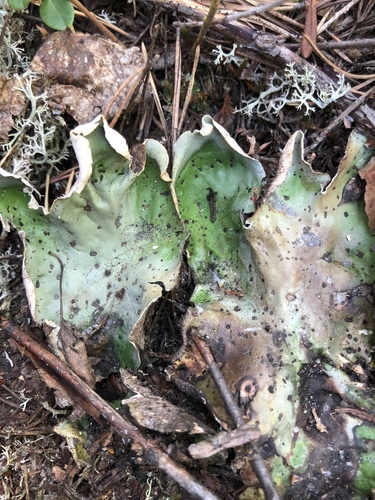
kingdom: Fungi
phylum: Ascomycota
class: Lecanoromycetes
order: Peltigerales
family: Peltigeraceae
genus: Peltigera
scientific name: Peltigera aphthosa
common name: Common freckle pelt lichen
